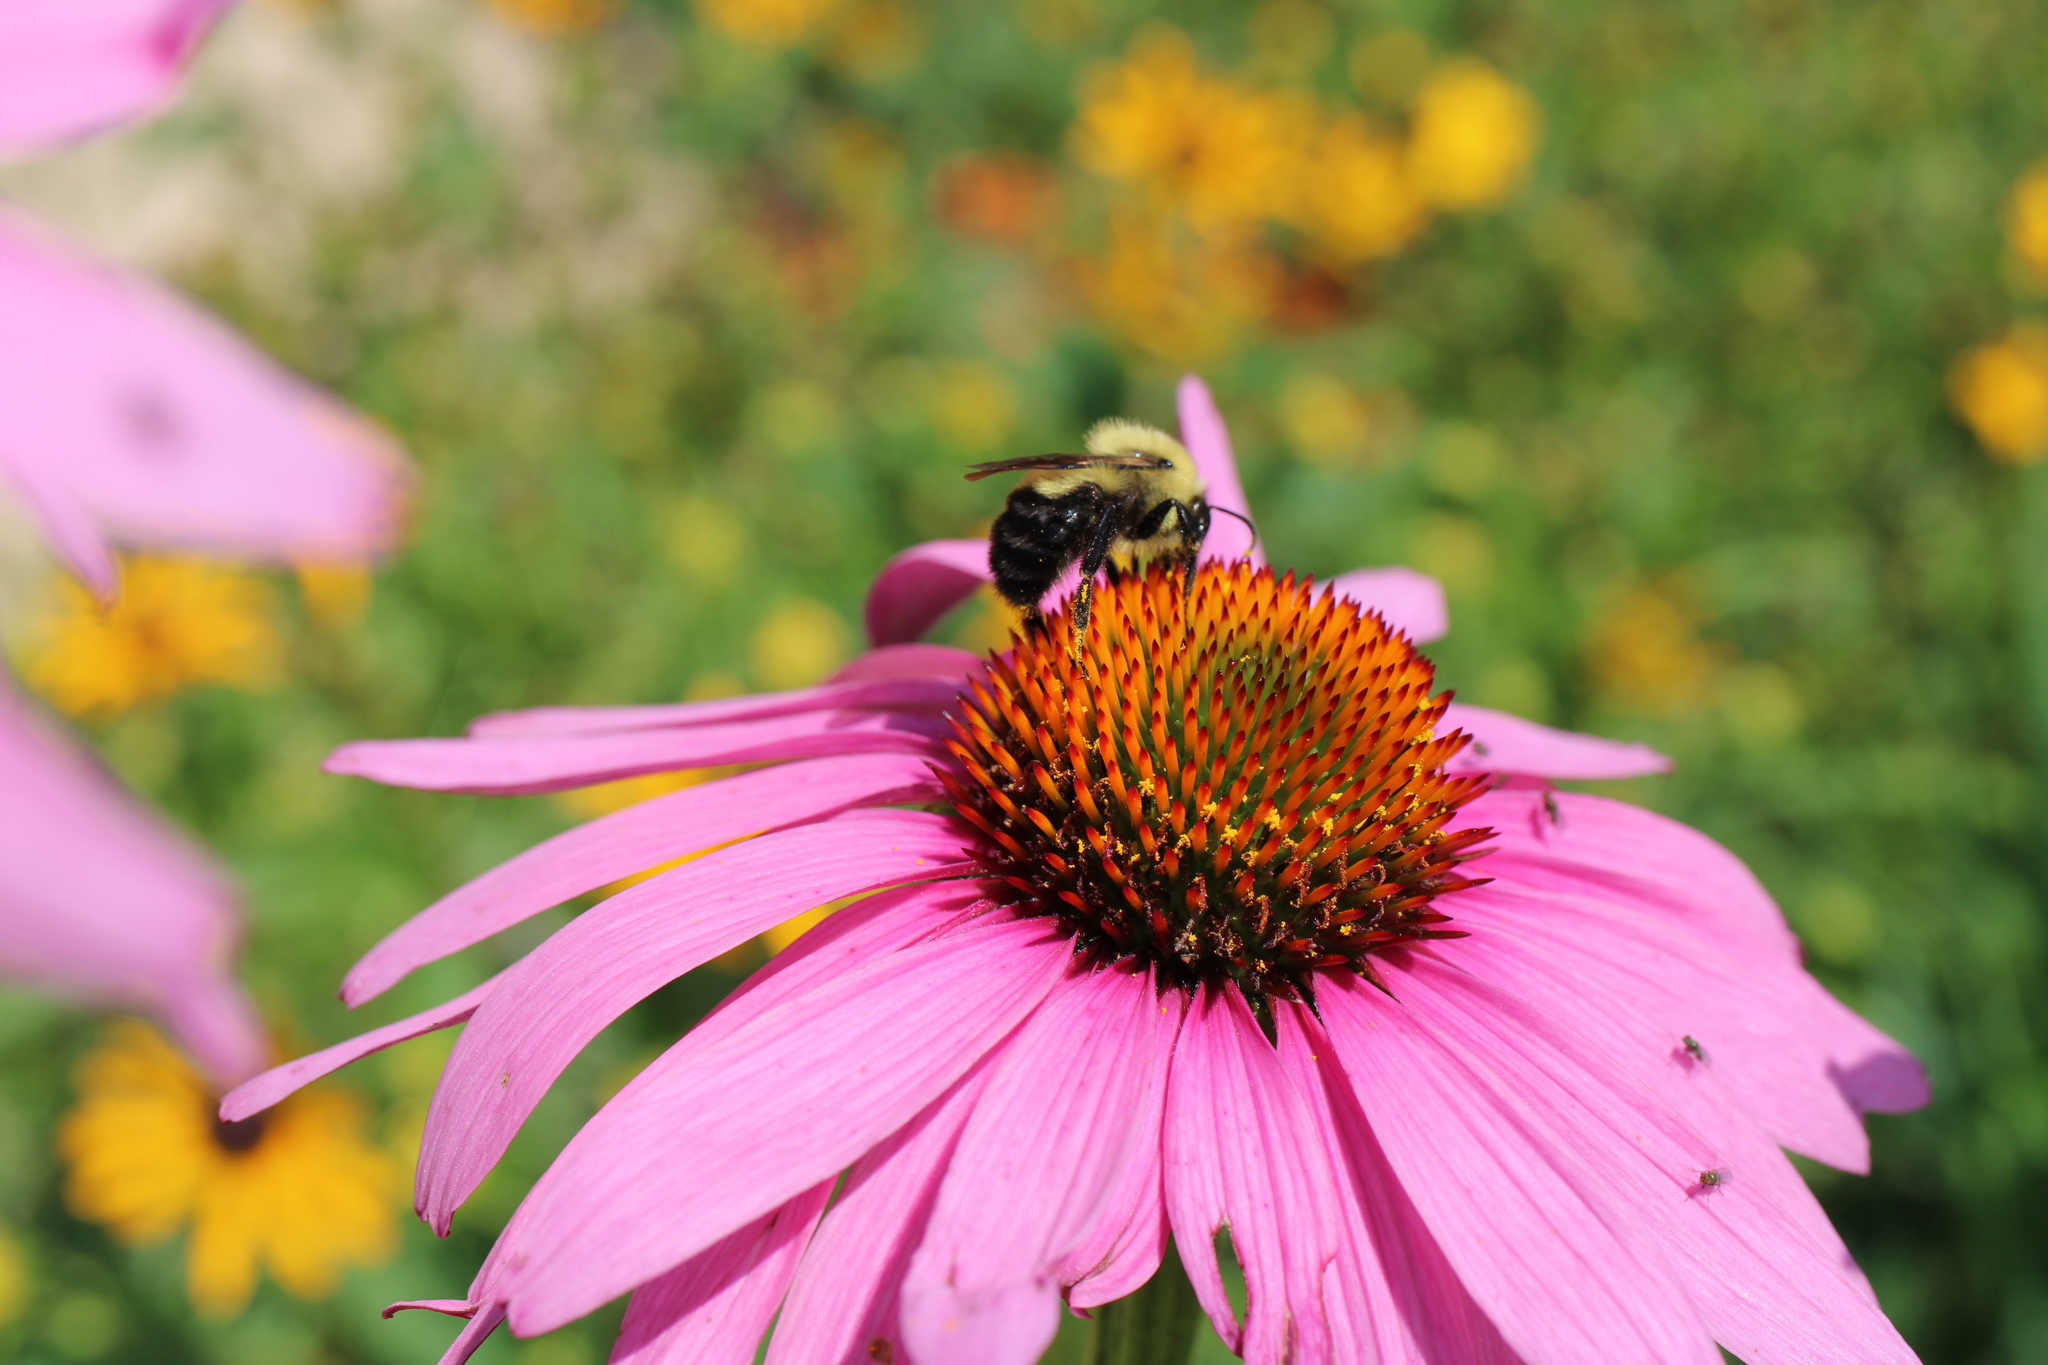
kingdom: Animalia
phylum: Arthropoda
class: Insecta
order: Hymenoptera
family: Apidae
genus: Bombus
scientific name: Bombus bimaculatus
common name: Two-spotted bumble bee
